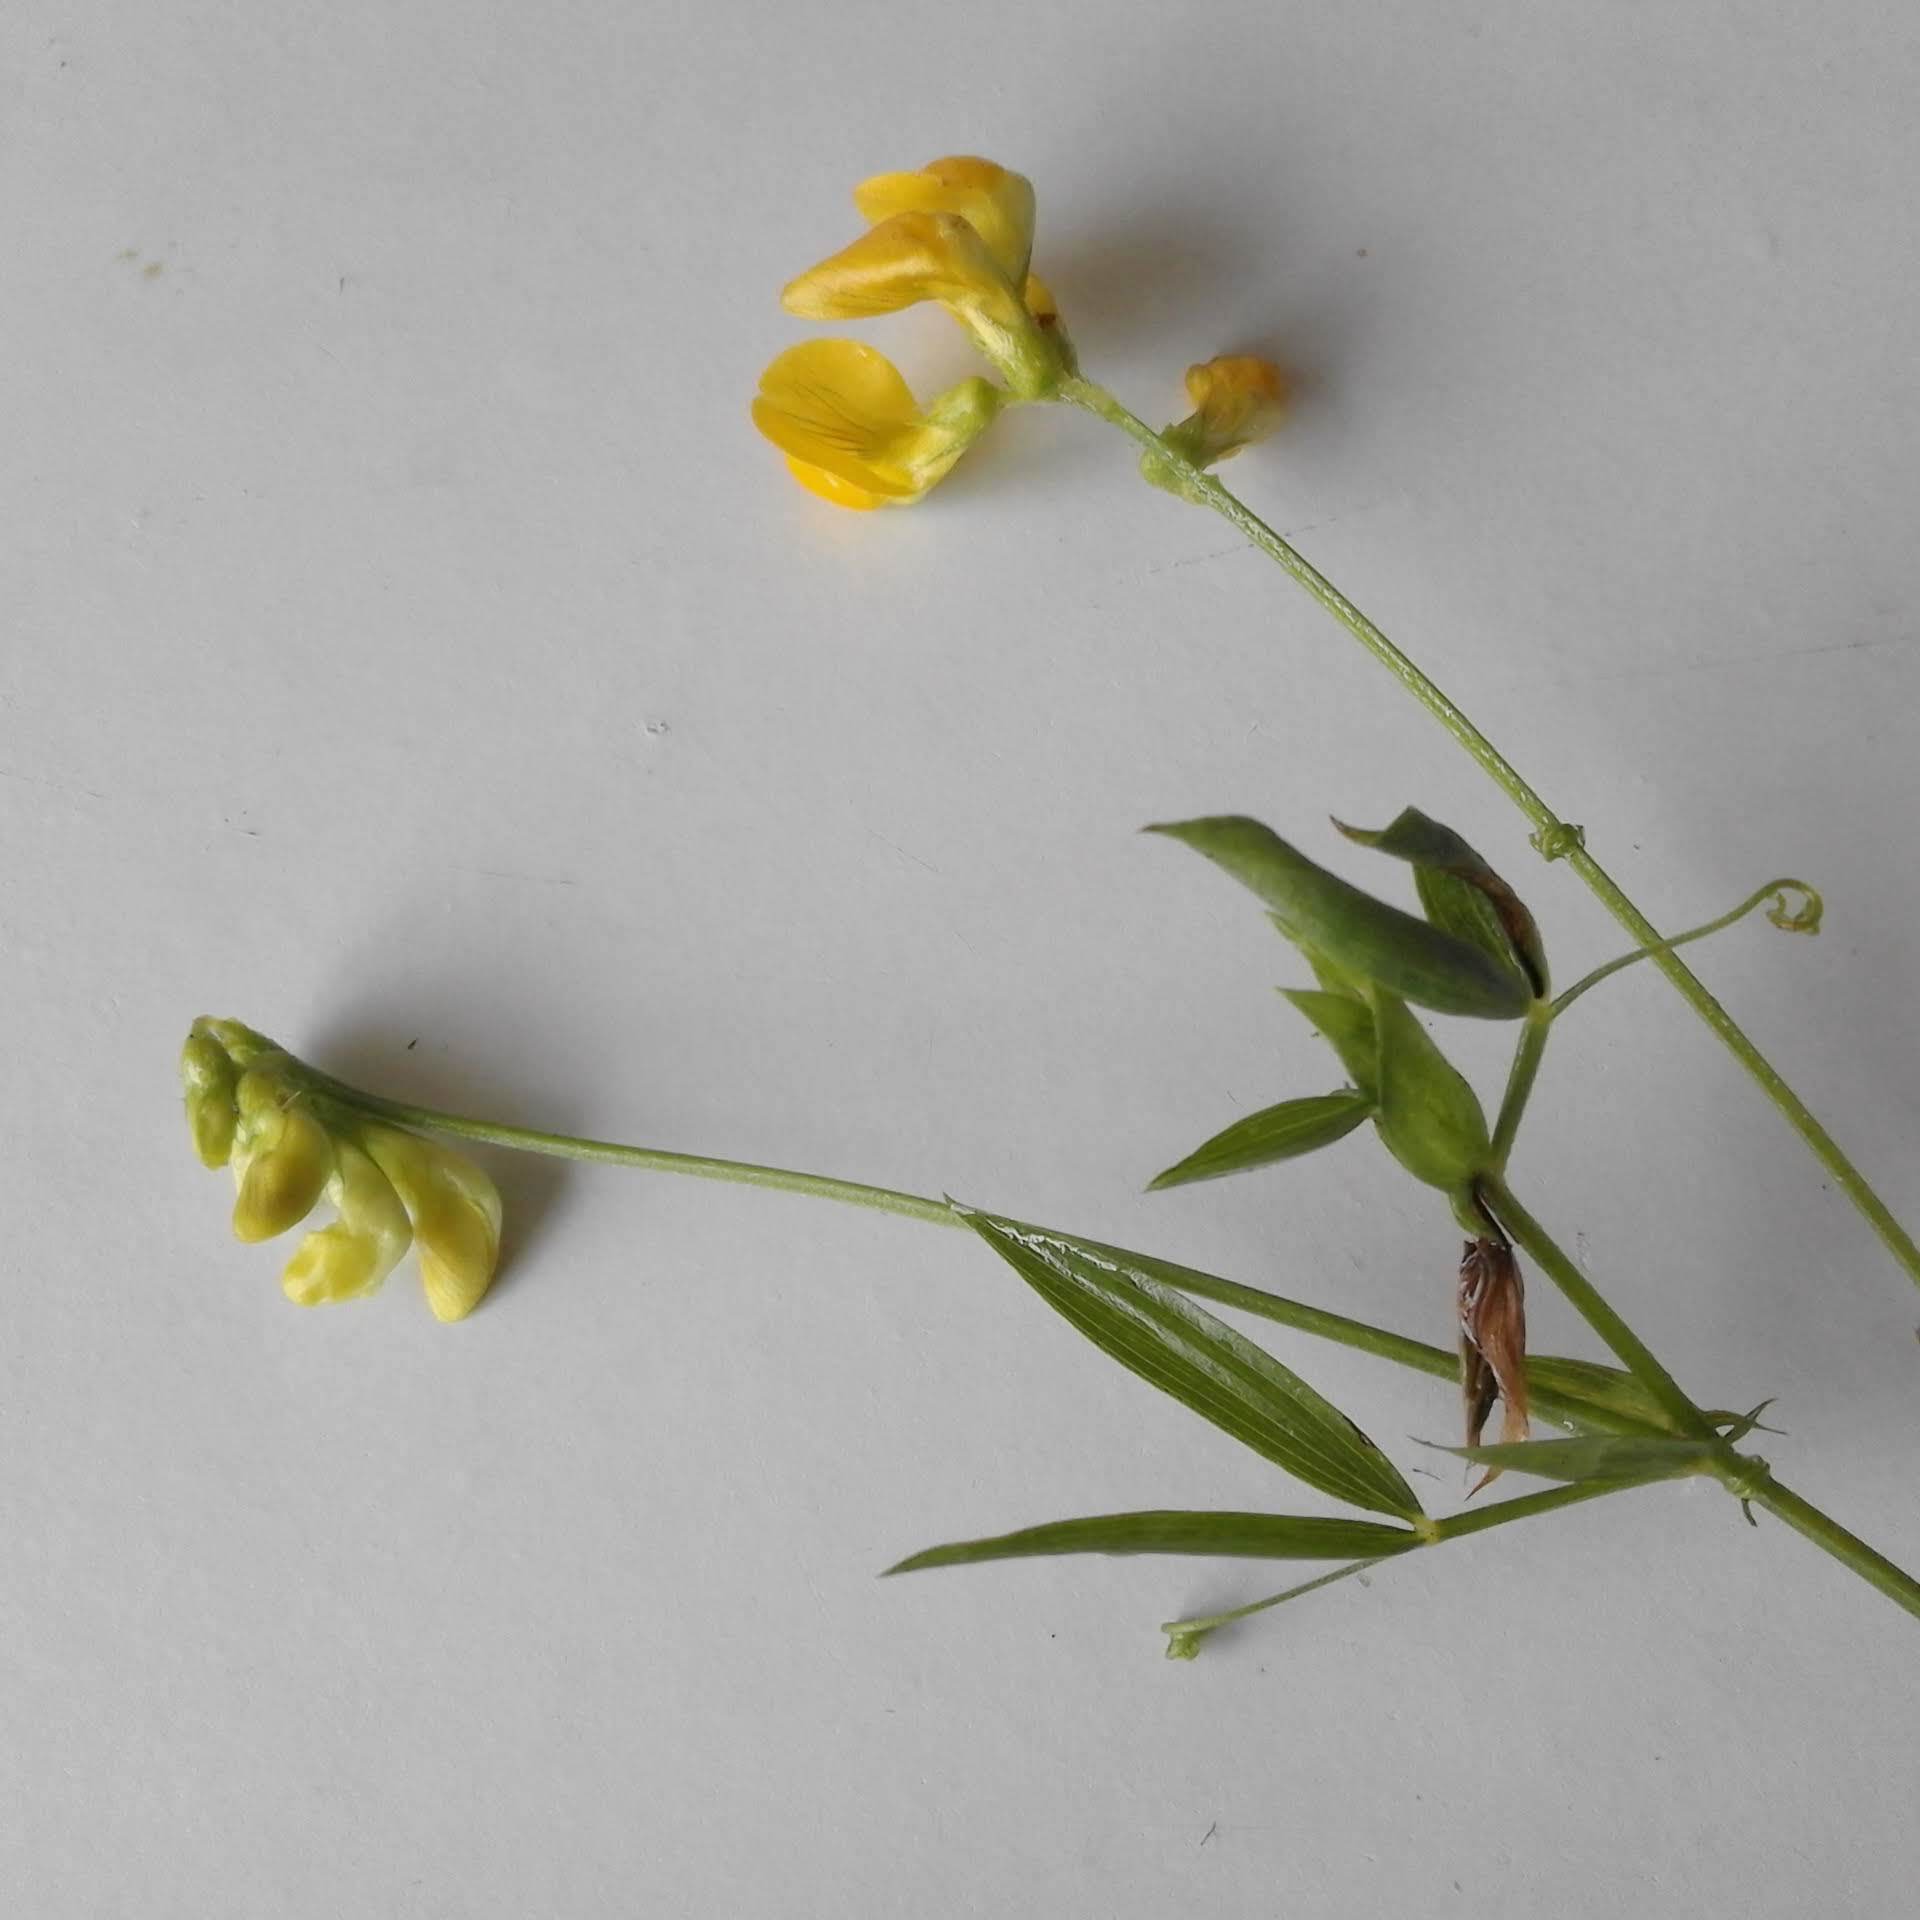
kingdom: Plantae
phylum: Tracheophyta
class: Magnoliopsida
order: Fabales
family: Fabaceae
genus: Lathyrus
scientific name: Lathyrus pratensis
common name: Meadow vetchling
